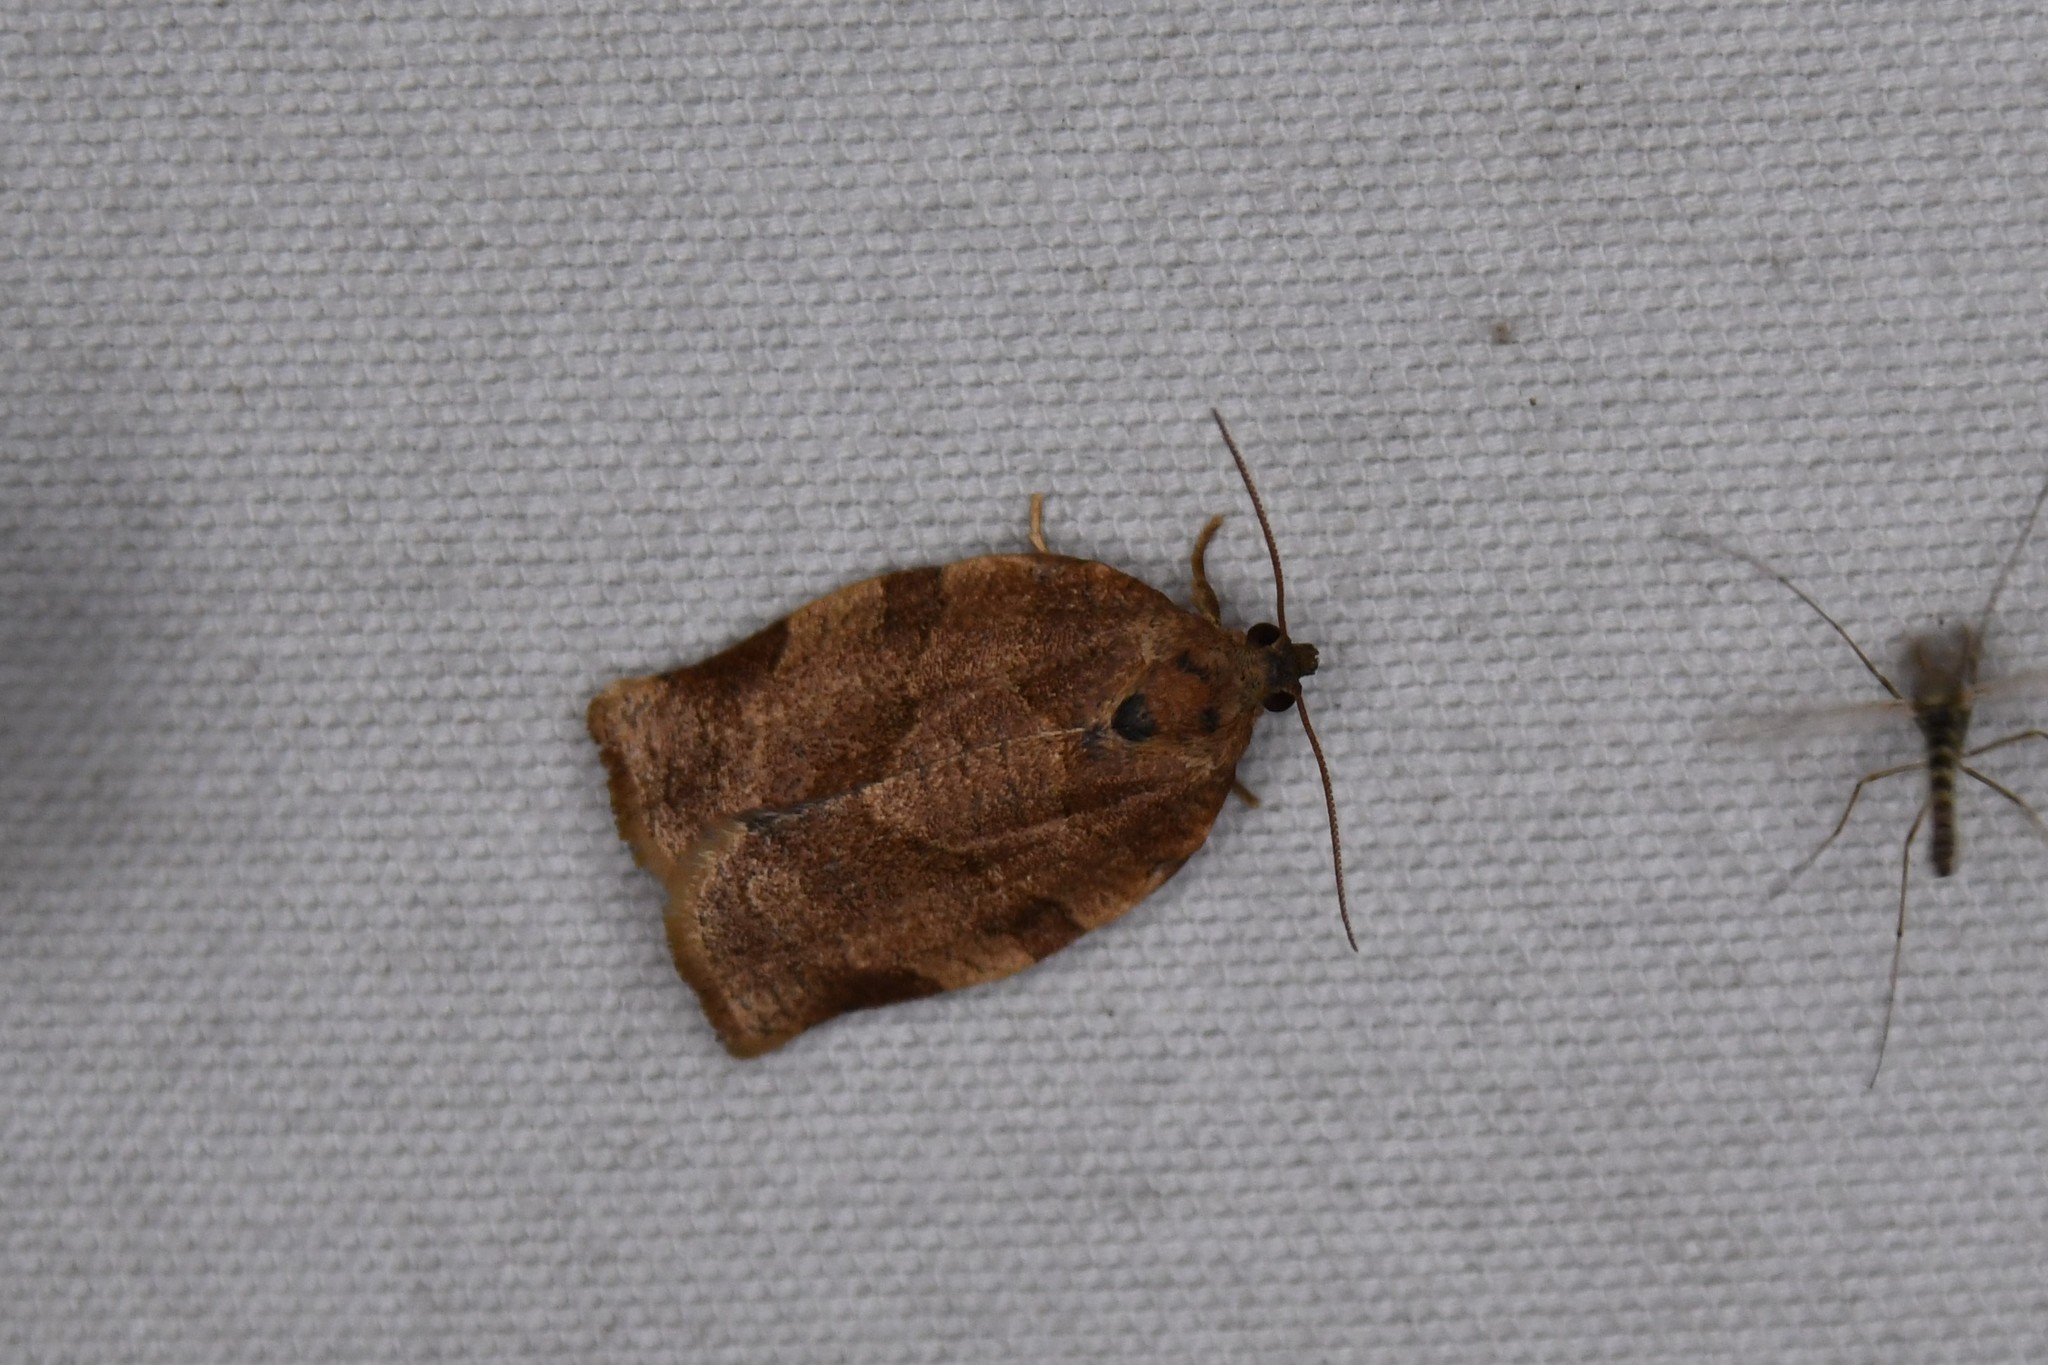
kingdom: Animalia
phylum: Arthropoda
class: Insecta
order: Lepidoptera
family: Tortricidae
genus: Choristoneura
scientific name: Choristoneura rosaceana
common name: Oblique-banded leafroller moth
